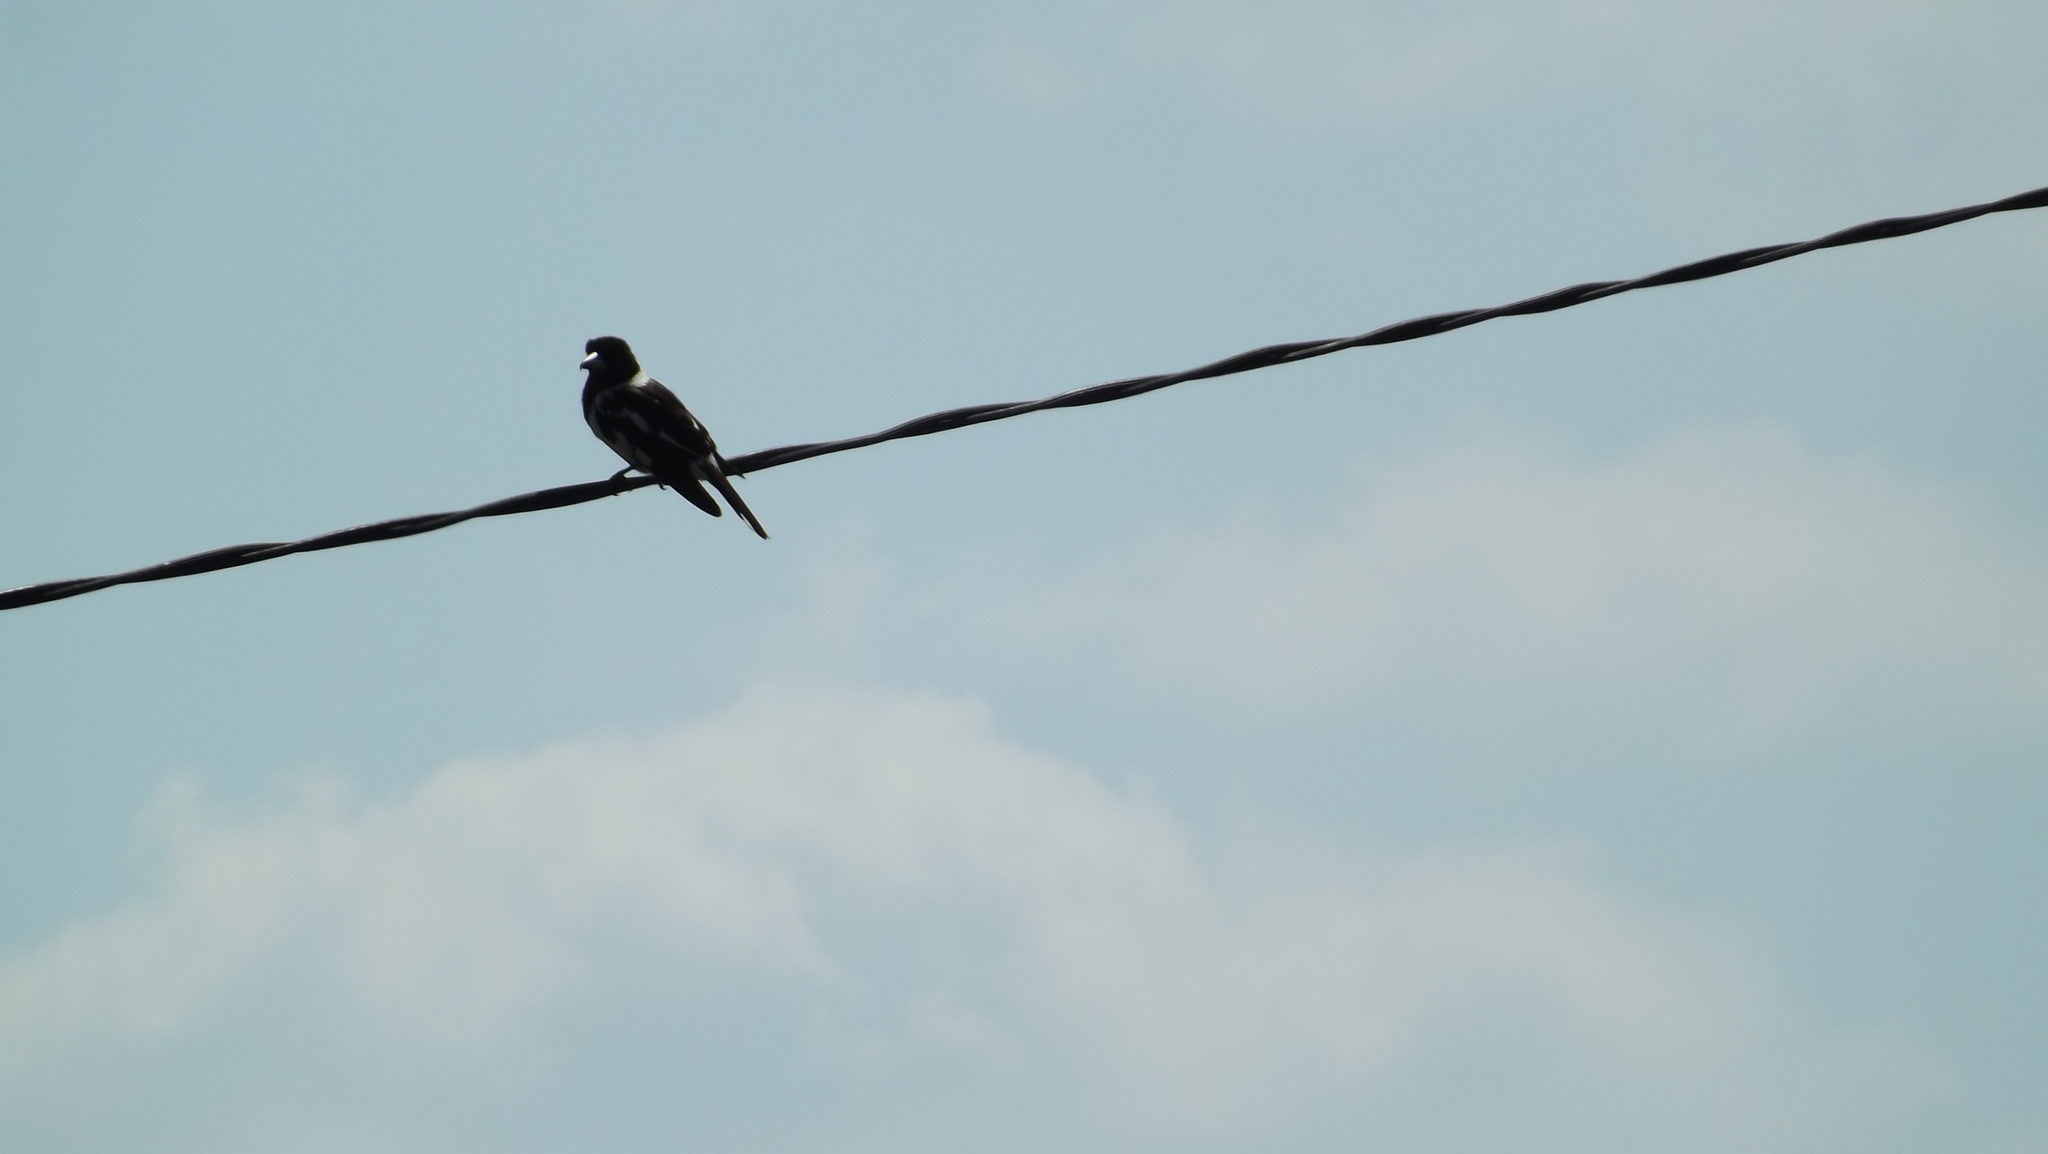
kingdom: Animalia
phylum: Chordata
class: Aves
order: Passeriformes
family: Cracticidae
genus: Gymnorhina
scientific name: Gymnorhina tibicen
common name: Australian magpie
